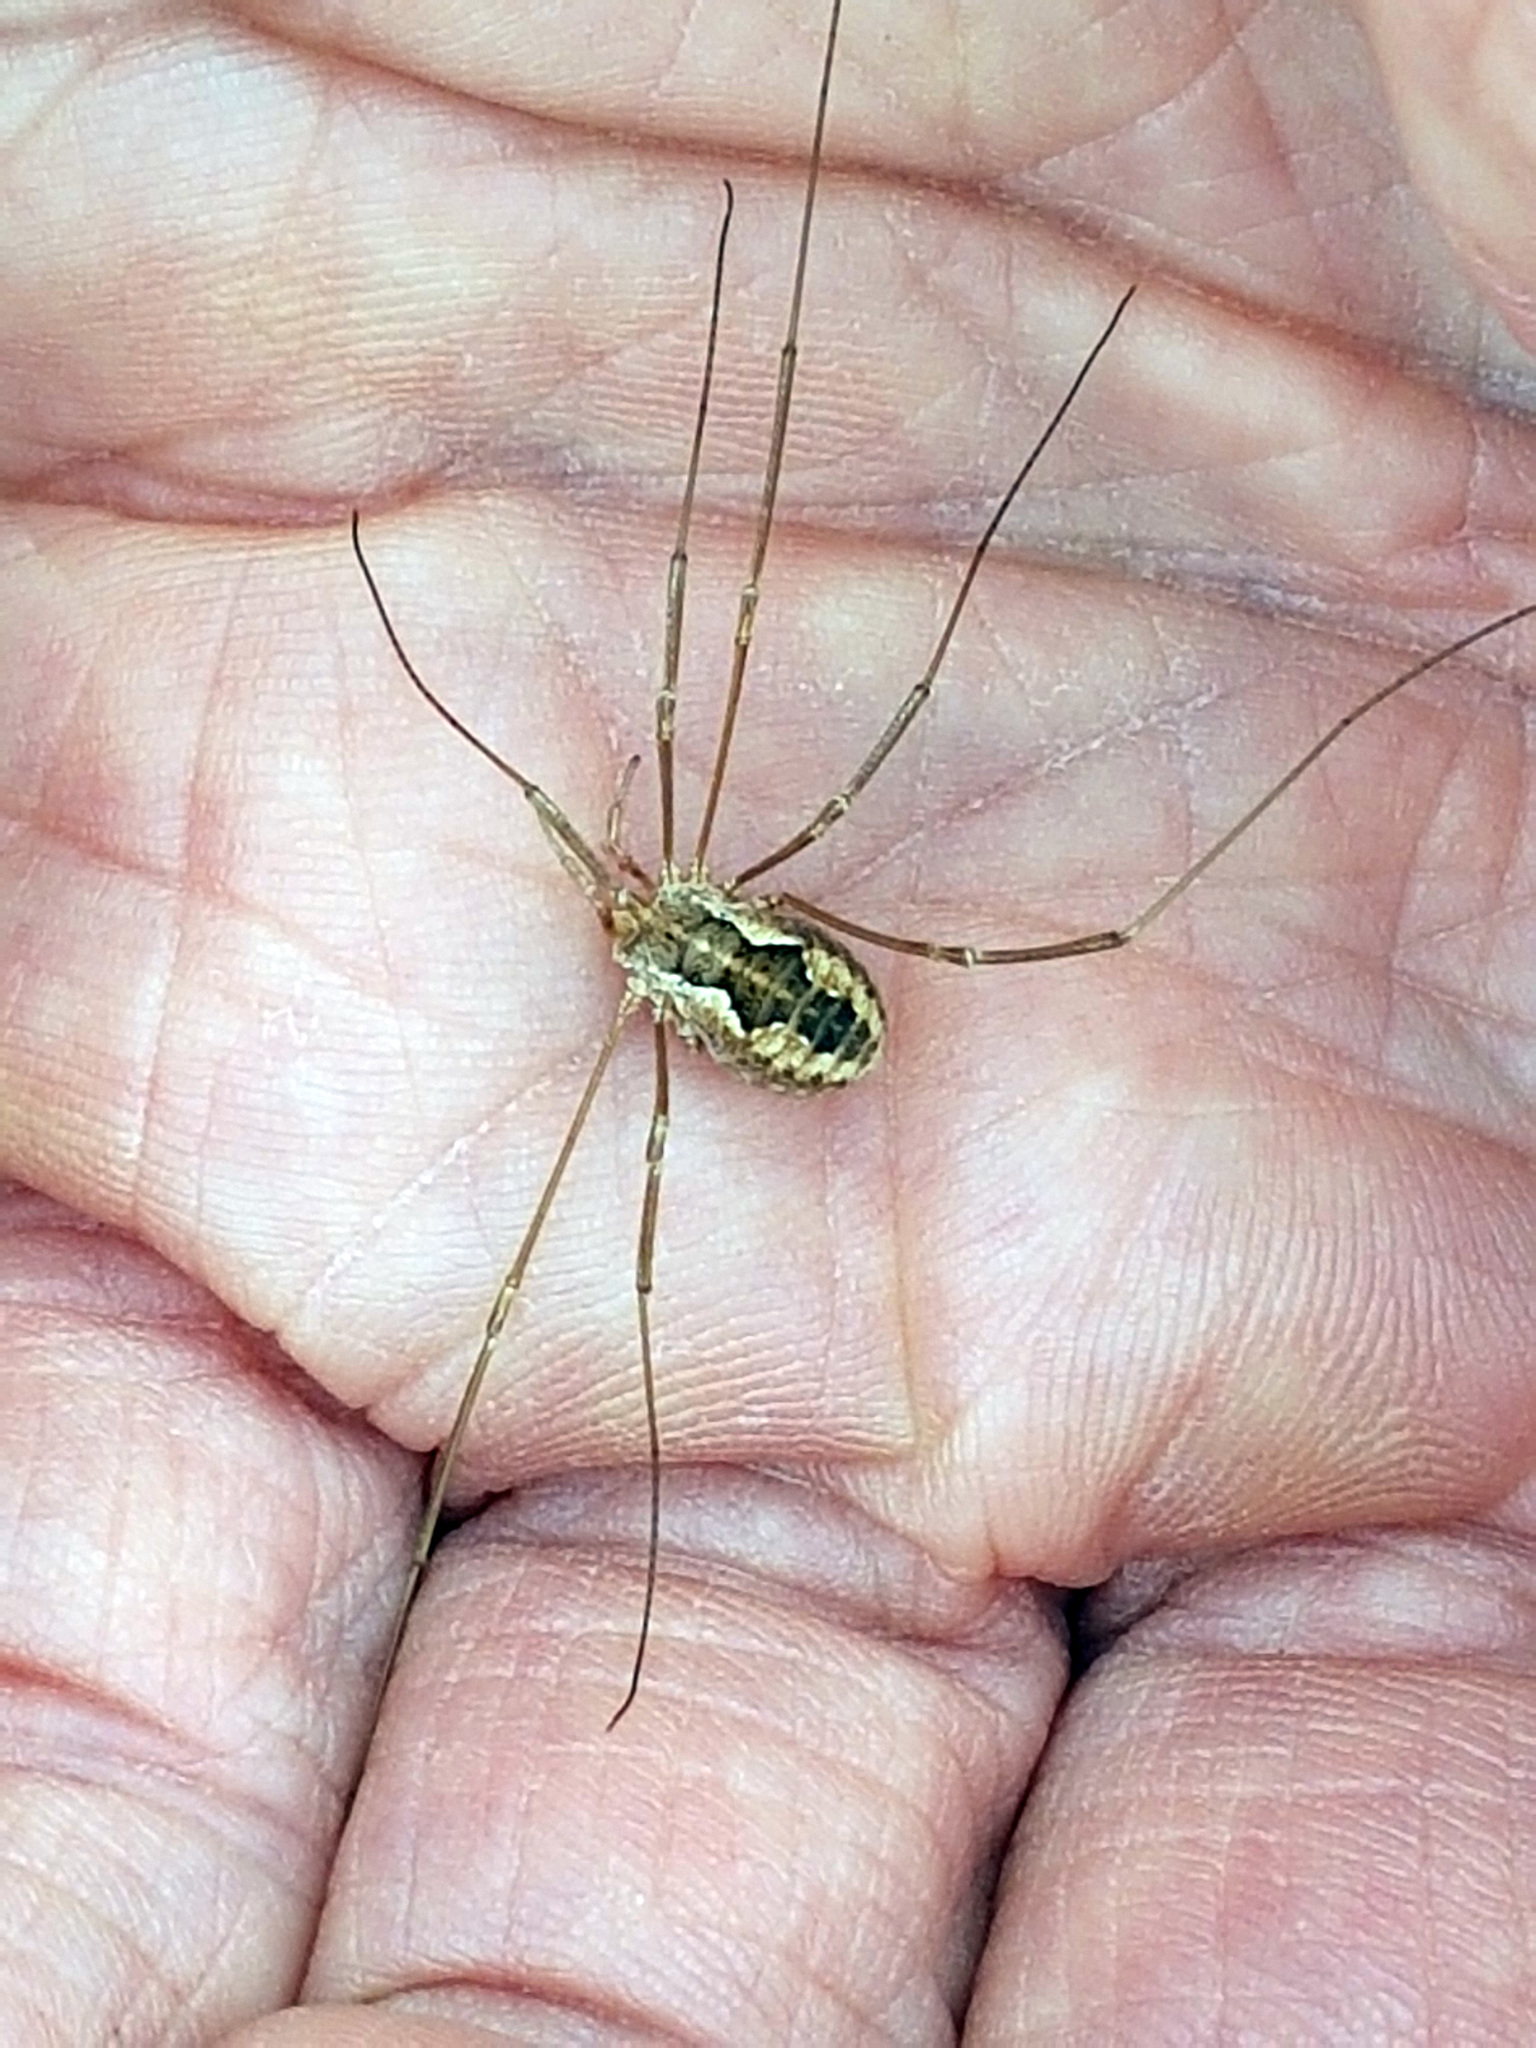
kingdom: Animalia
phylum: Arthropoda
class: Arachnida
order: Opiliones
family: Phalangiidae
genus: Phalangium
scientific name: Phalangium opilio
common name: Daddy longleg
